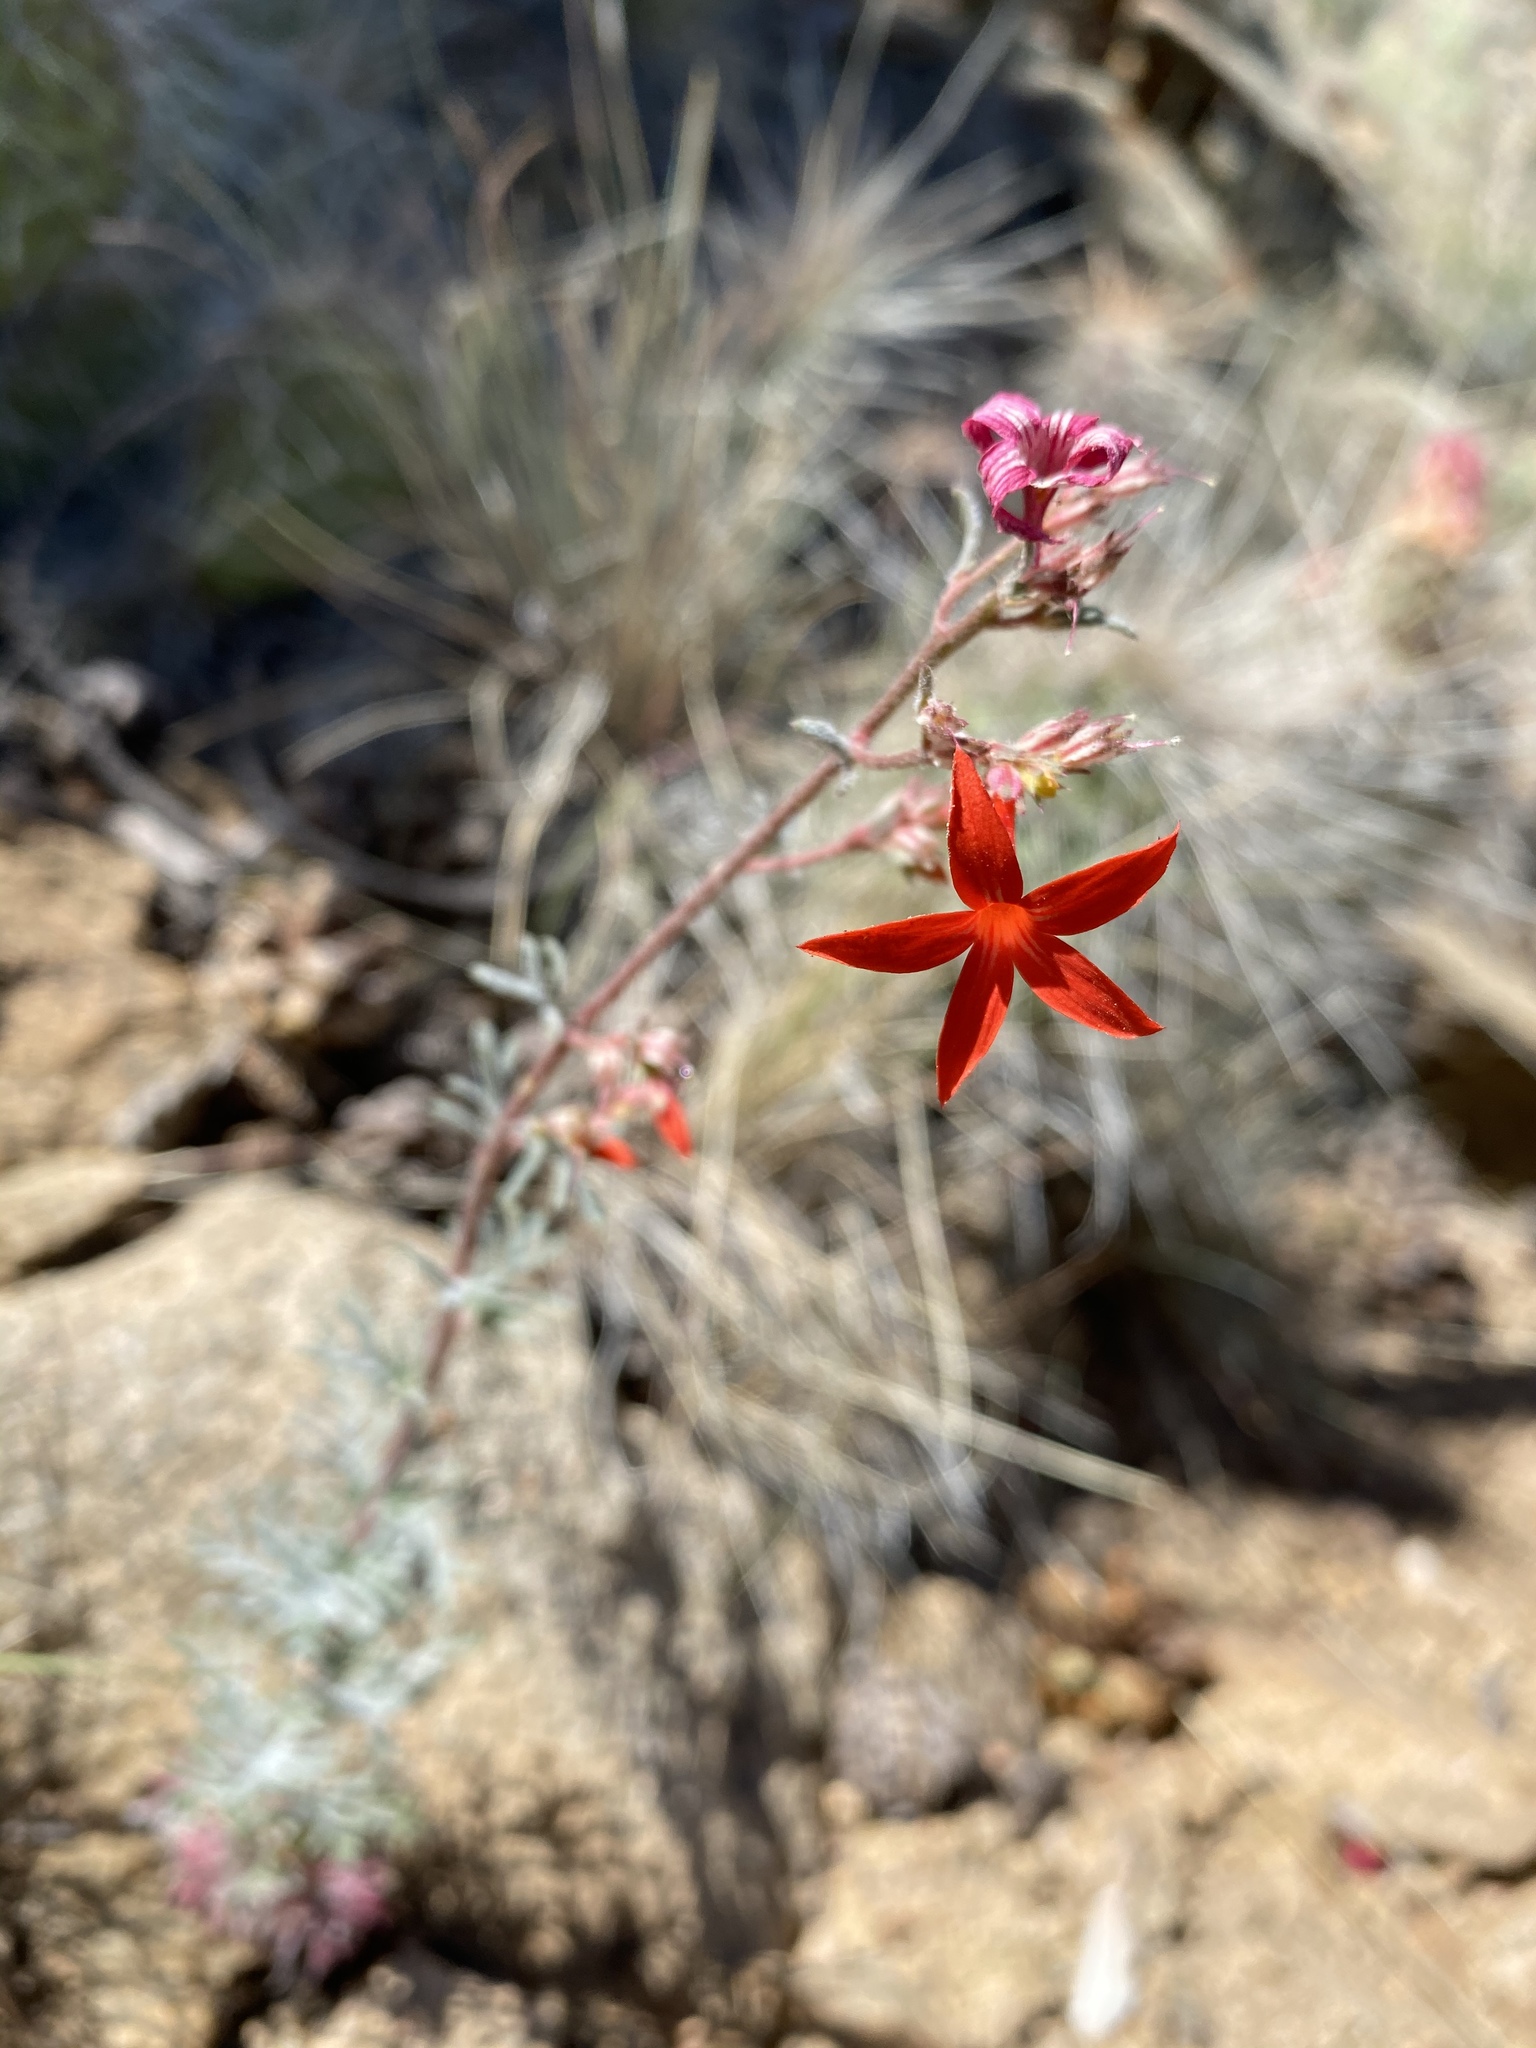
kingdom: Plantae
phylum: Tracheophyta
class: Magnoliopsida
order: Ericales
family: Polemoniaceae
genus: Ipomopsis
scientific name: Ipomopsis arizonica
